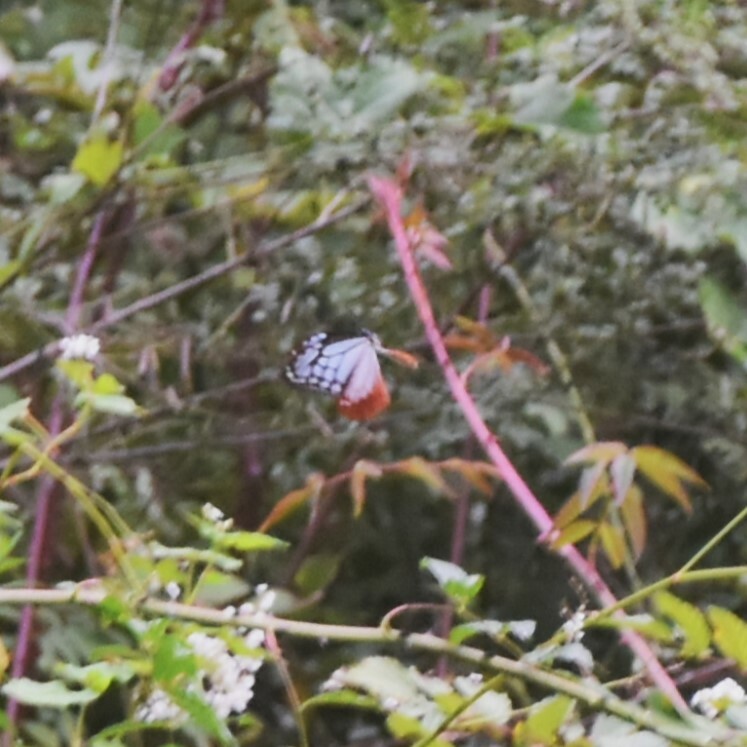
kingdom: Animalia
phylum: Arthropoda
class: Insecta
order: Lepidoptera
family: Nymphalidae
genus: Parantica
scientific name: Parantica sita
